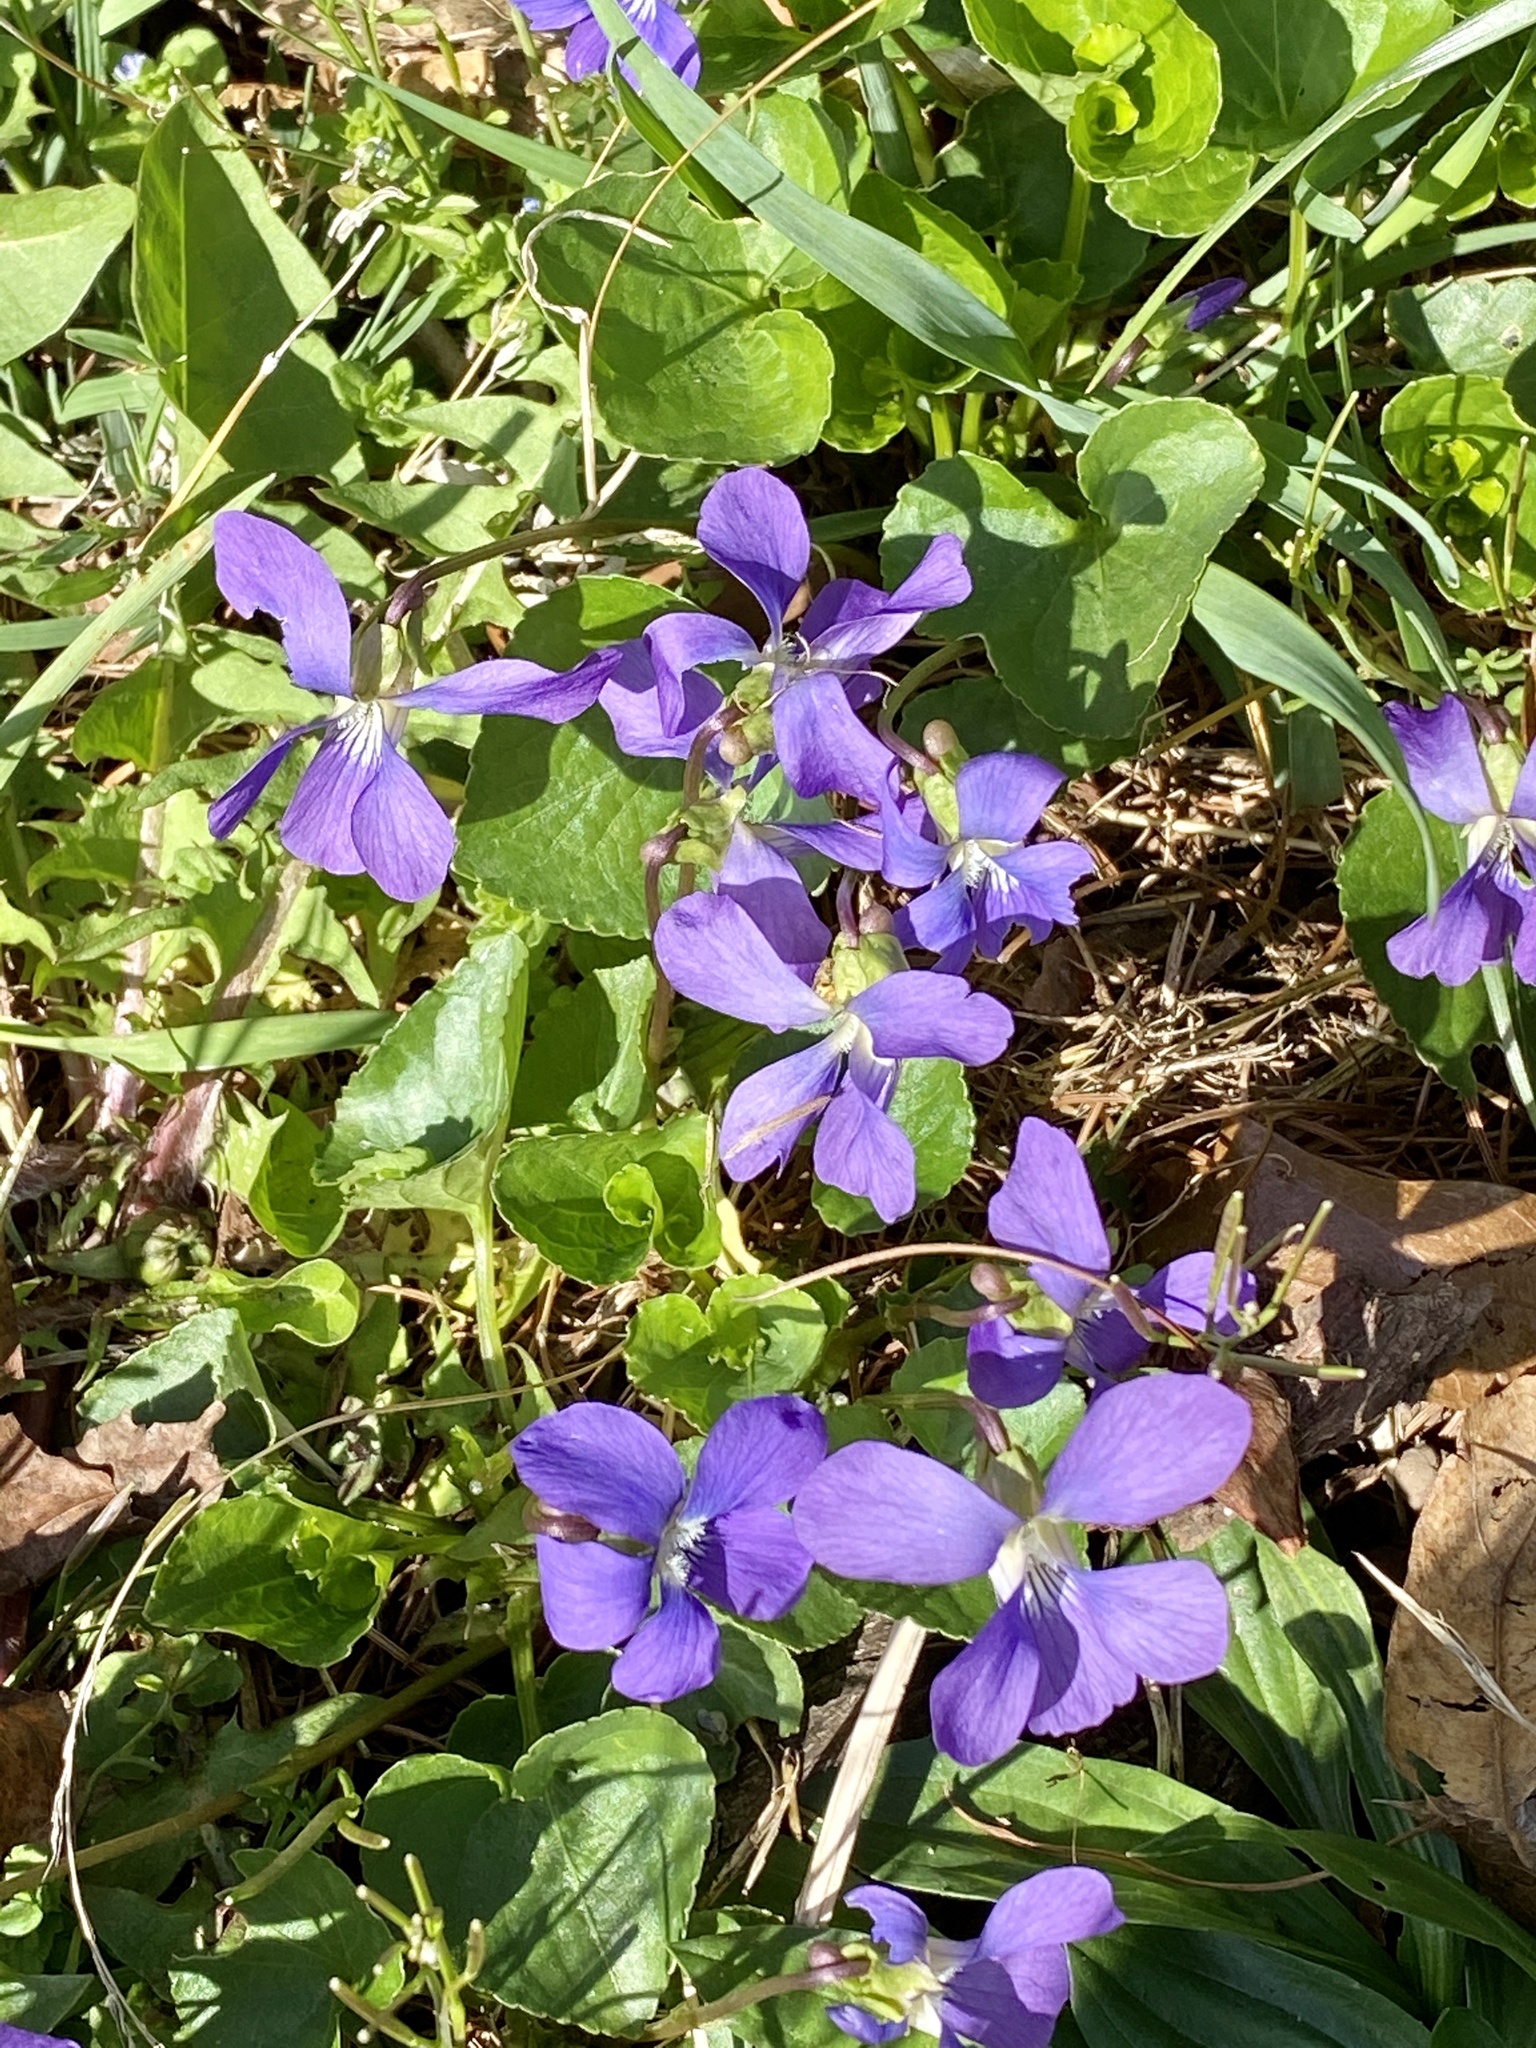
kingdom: Plantae
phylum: Tracheophyta
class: Magnoliopsida
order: Malpighiales
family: Violaceae
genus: Viola
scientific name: Viola sororia
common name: Dooryard violet
